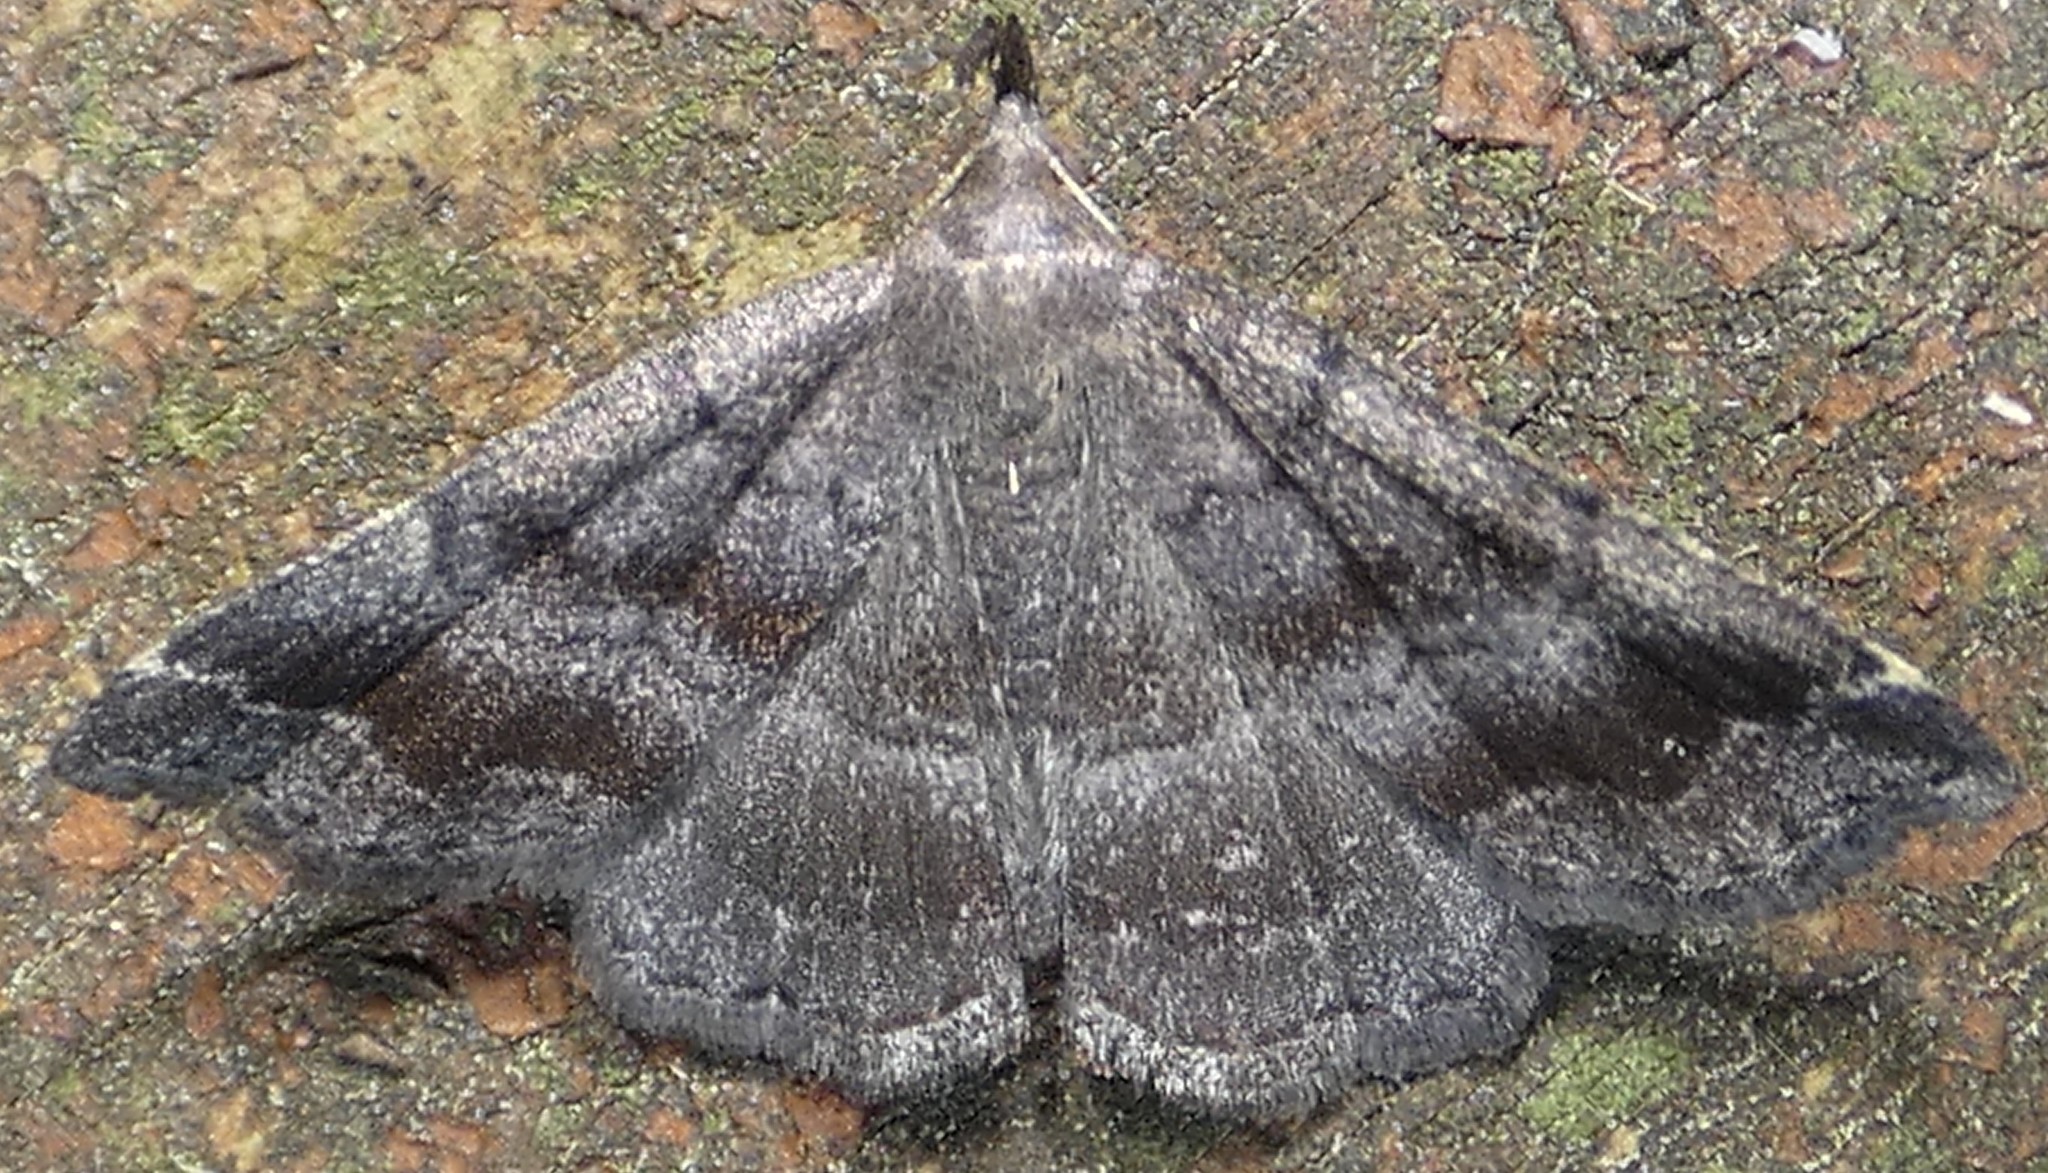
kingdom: Animalia
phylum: Arthropoda
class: Insecta
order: Lepidoptera
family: Erebidae
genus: Phalaenostola
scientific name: Phalaenostola larentioides
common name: Black-banded owlet
